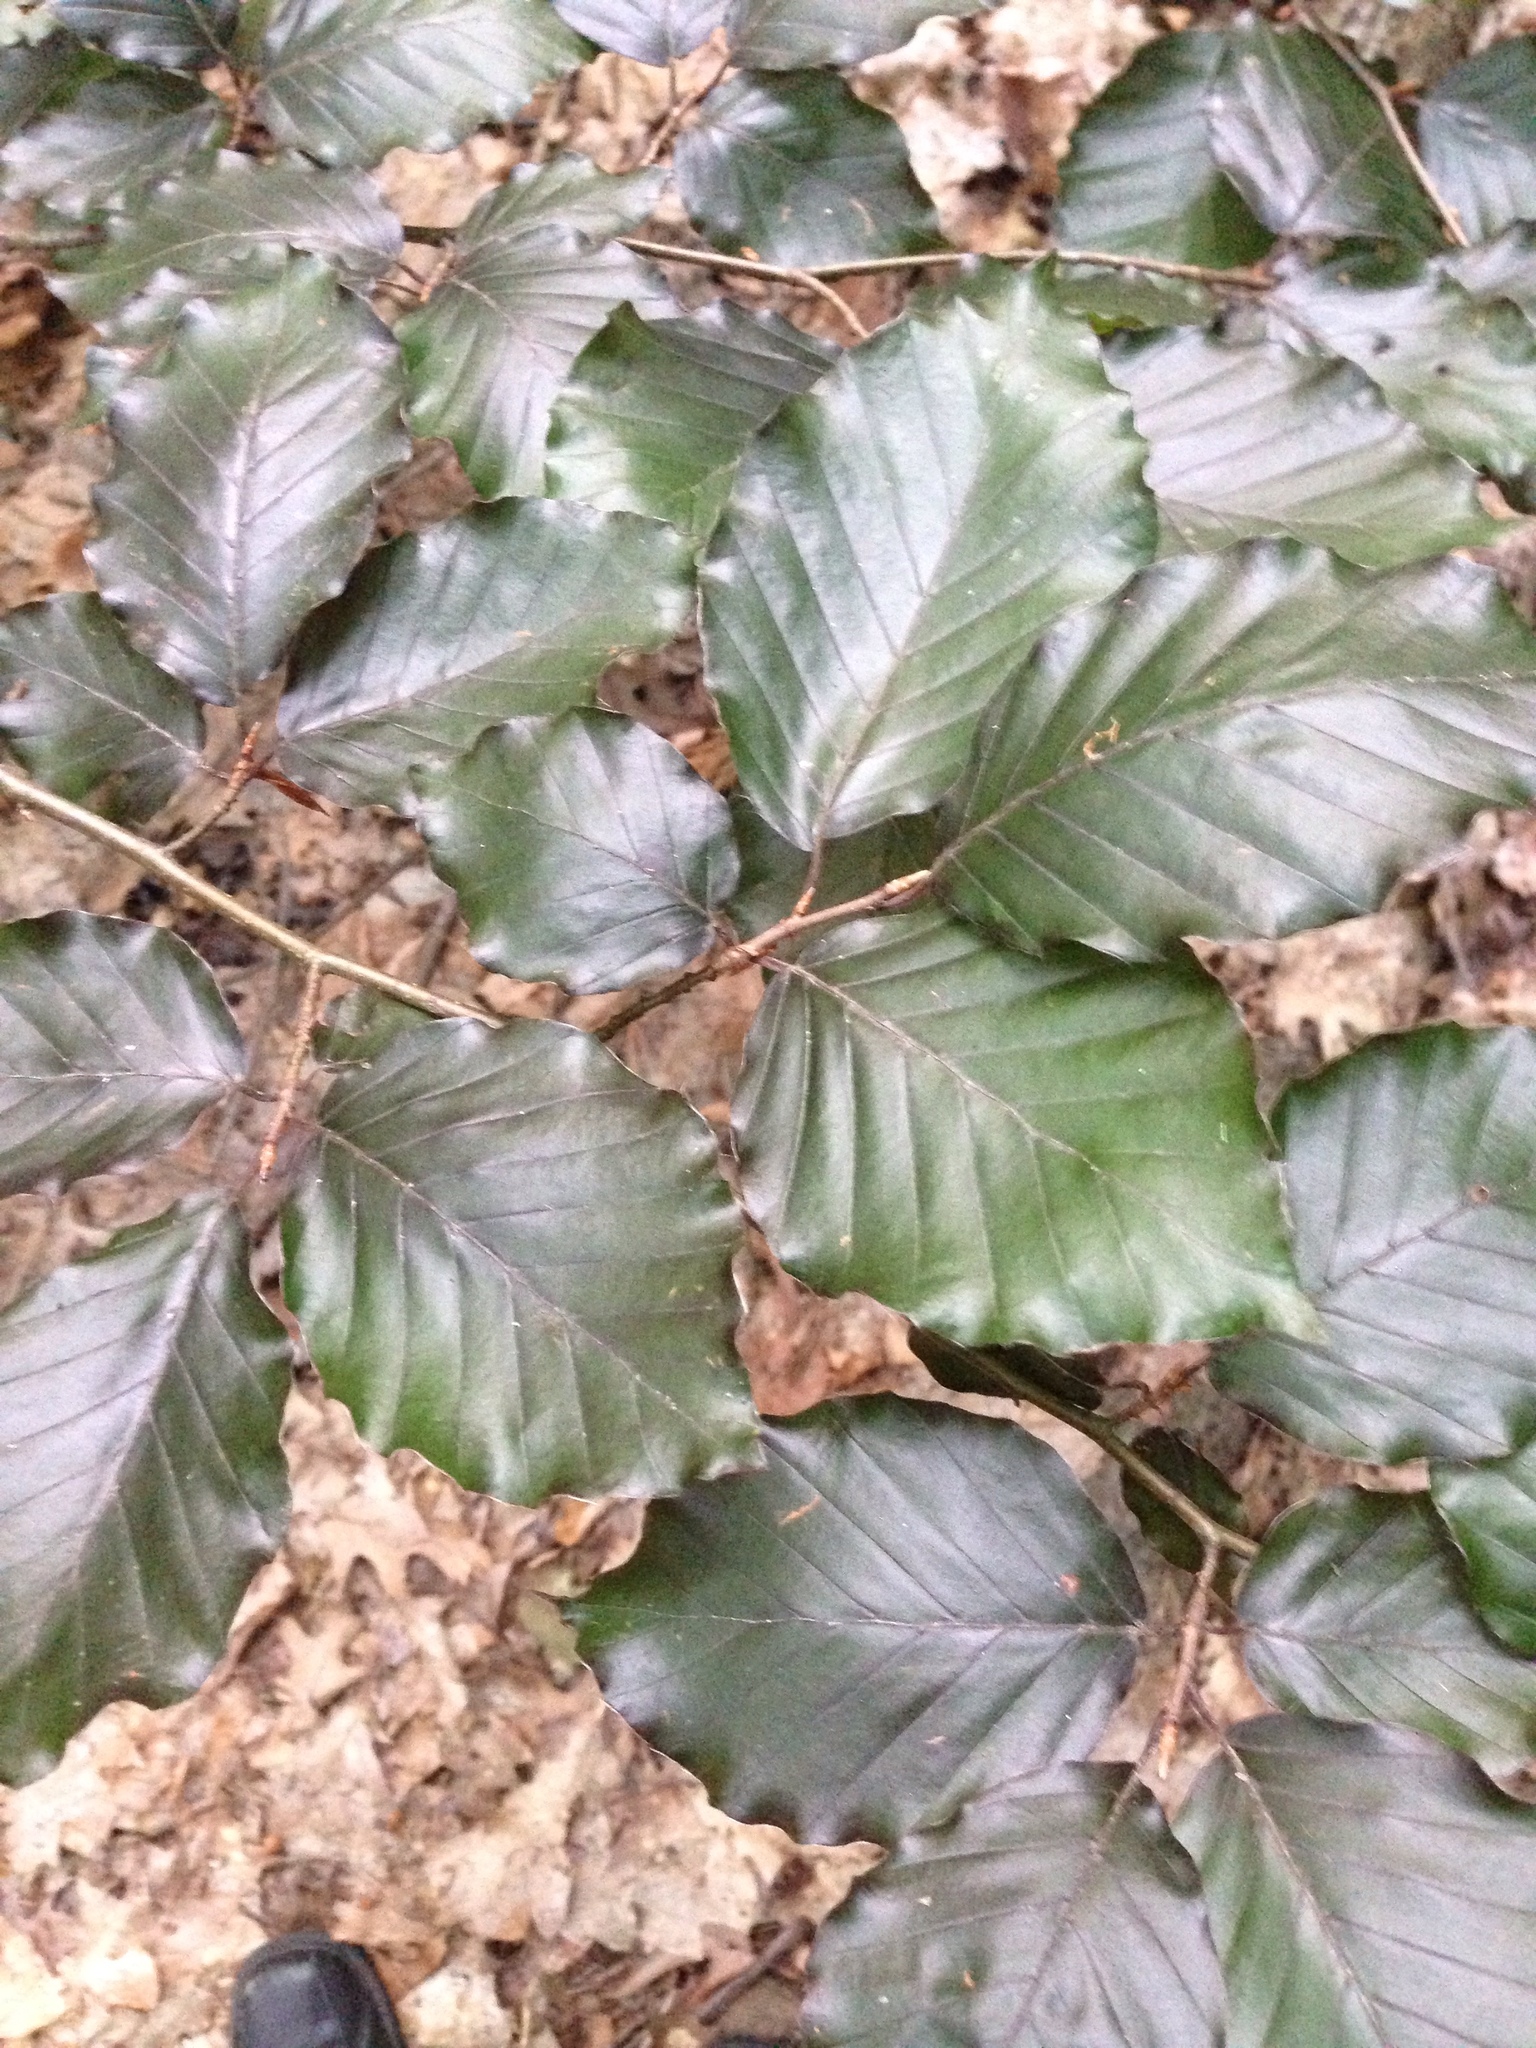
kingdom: Plantae
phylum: Tracheophyta
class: Magnoliopsida
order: Fagales
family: Fagaceae
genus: Fagus
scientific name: Fagus sylvatica
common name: Beech
